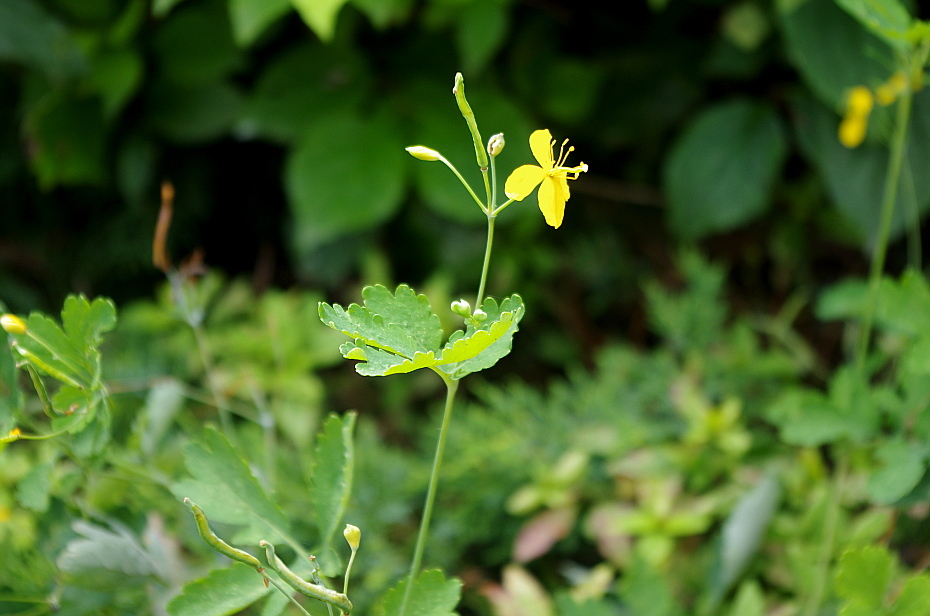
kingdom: Plantae
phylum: Tracheophyta
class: Magnoliopsida
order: Ranunculales
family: Papaveraceae
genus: Chelidonium
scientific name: Chelidonium majus
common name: Greater celandine
